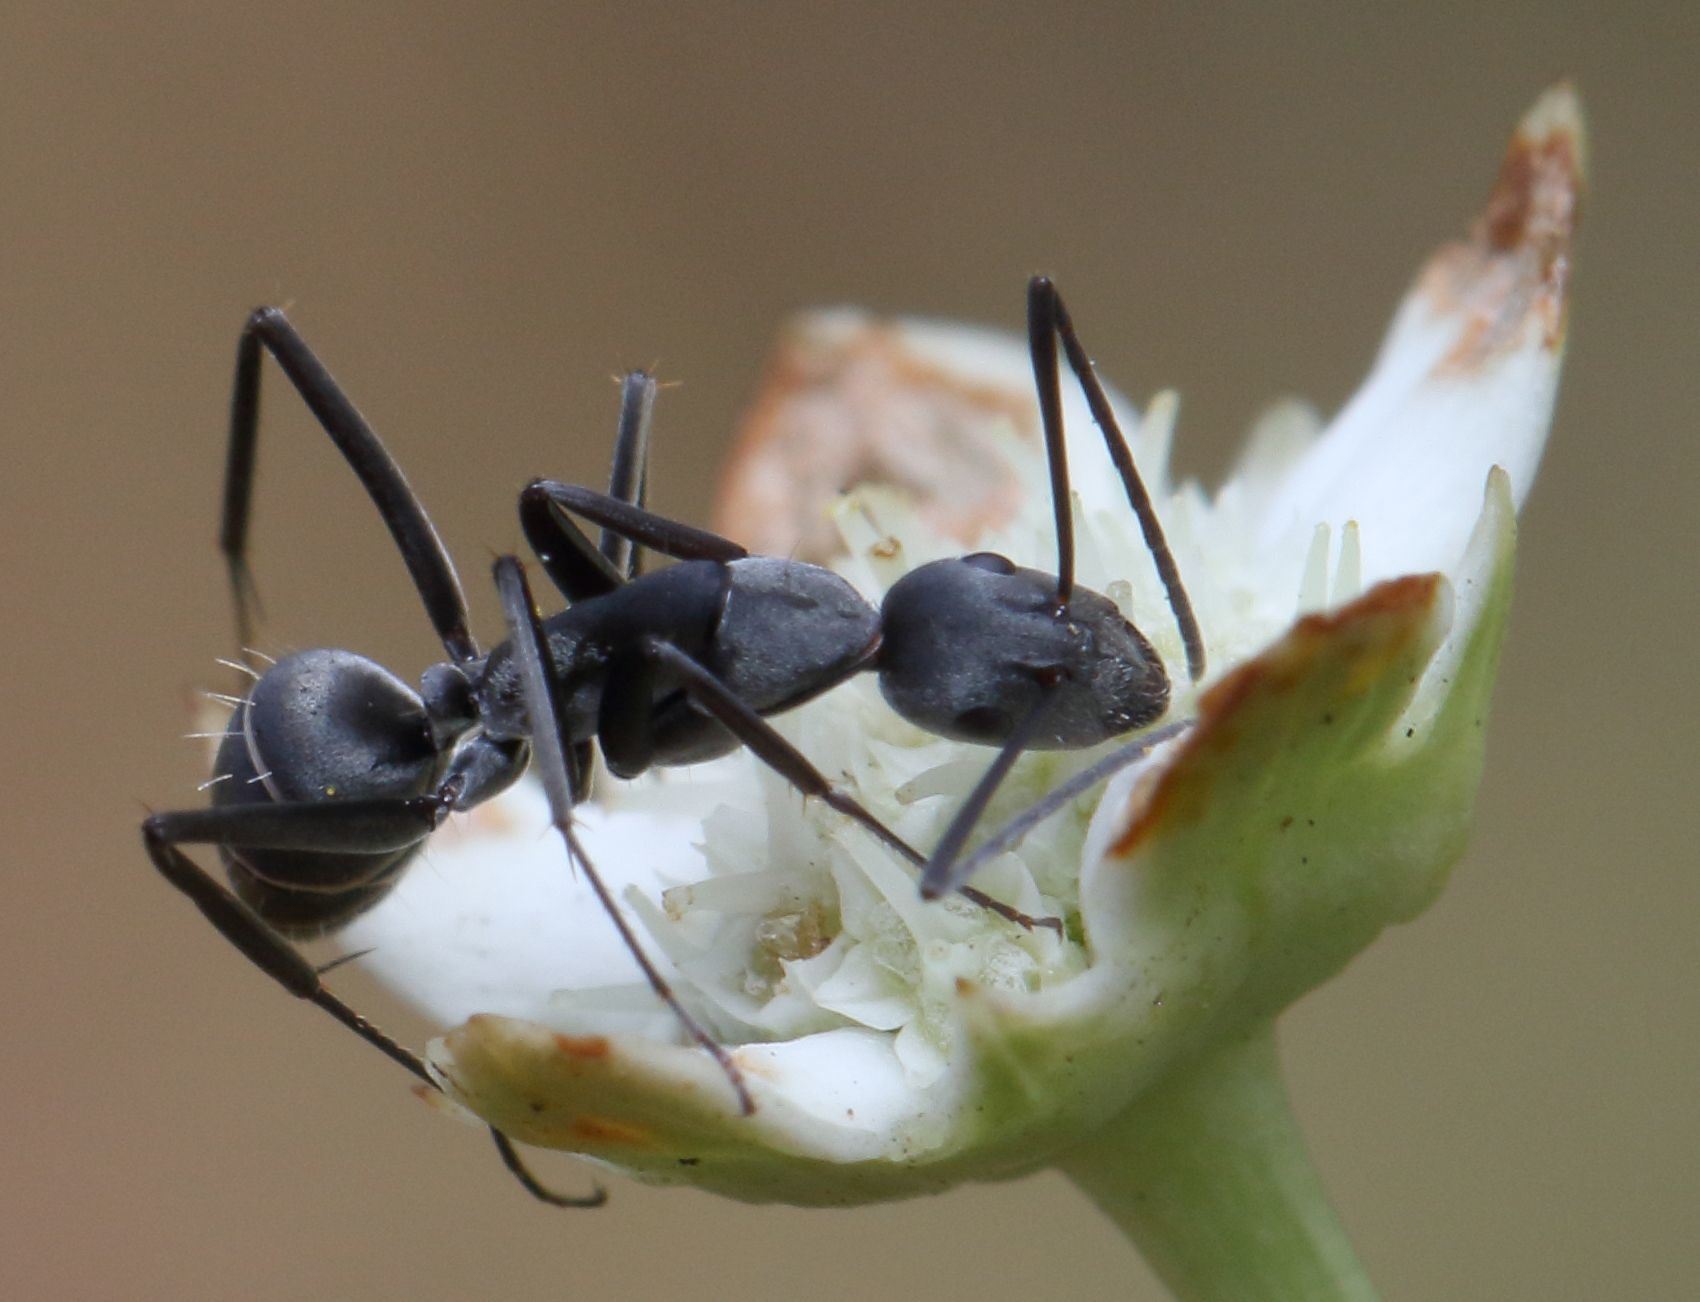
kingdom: Animalia
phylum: Arthropoda
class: Insecta
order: Hymenoptera
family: Formicidae
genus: Camponotus
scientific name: Camponotus eugeniae
